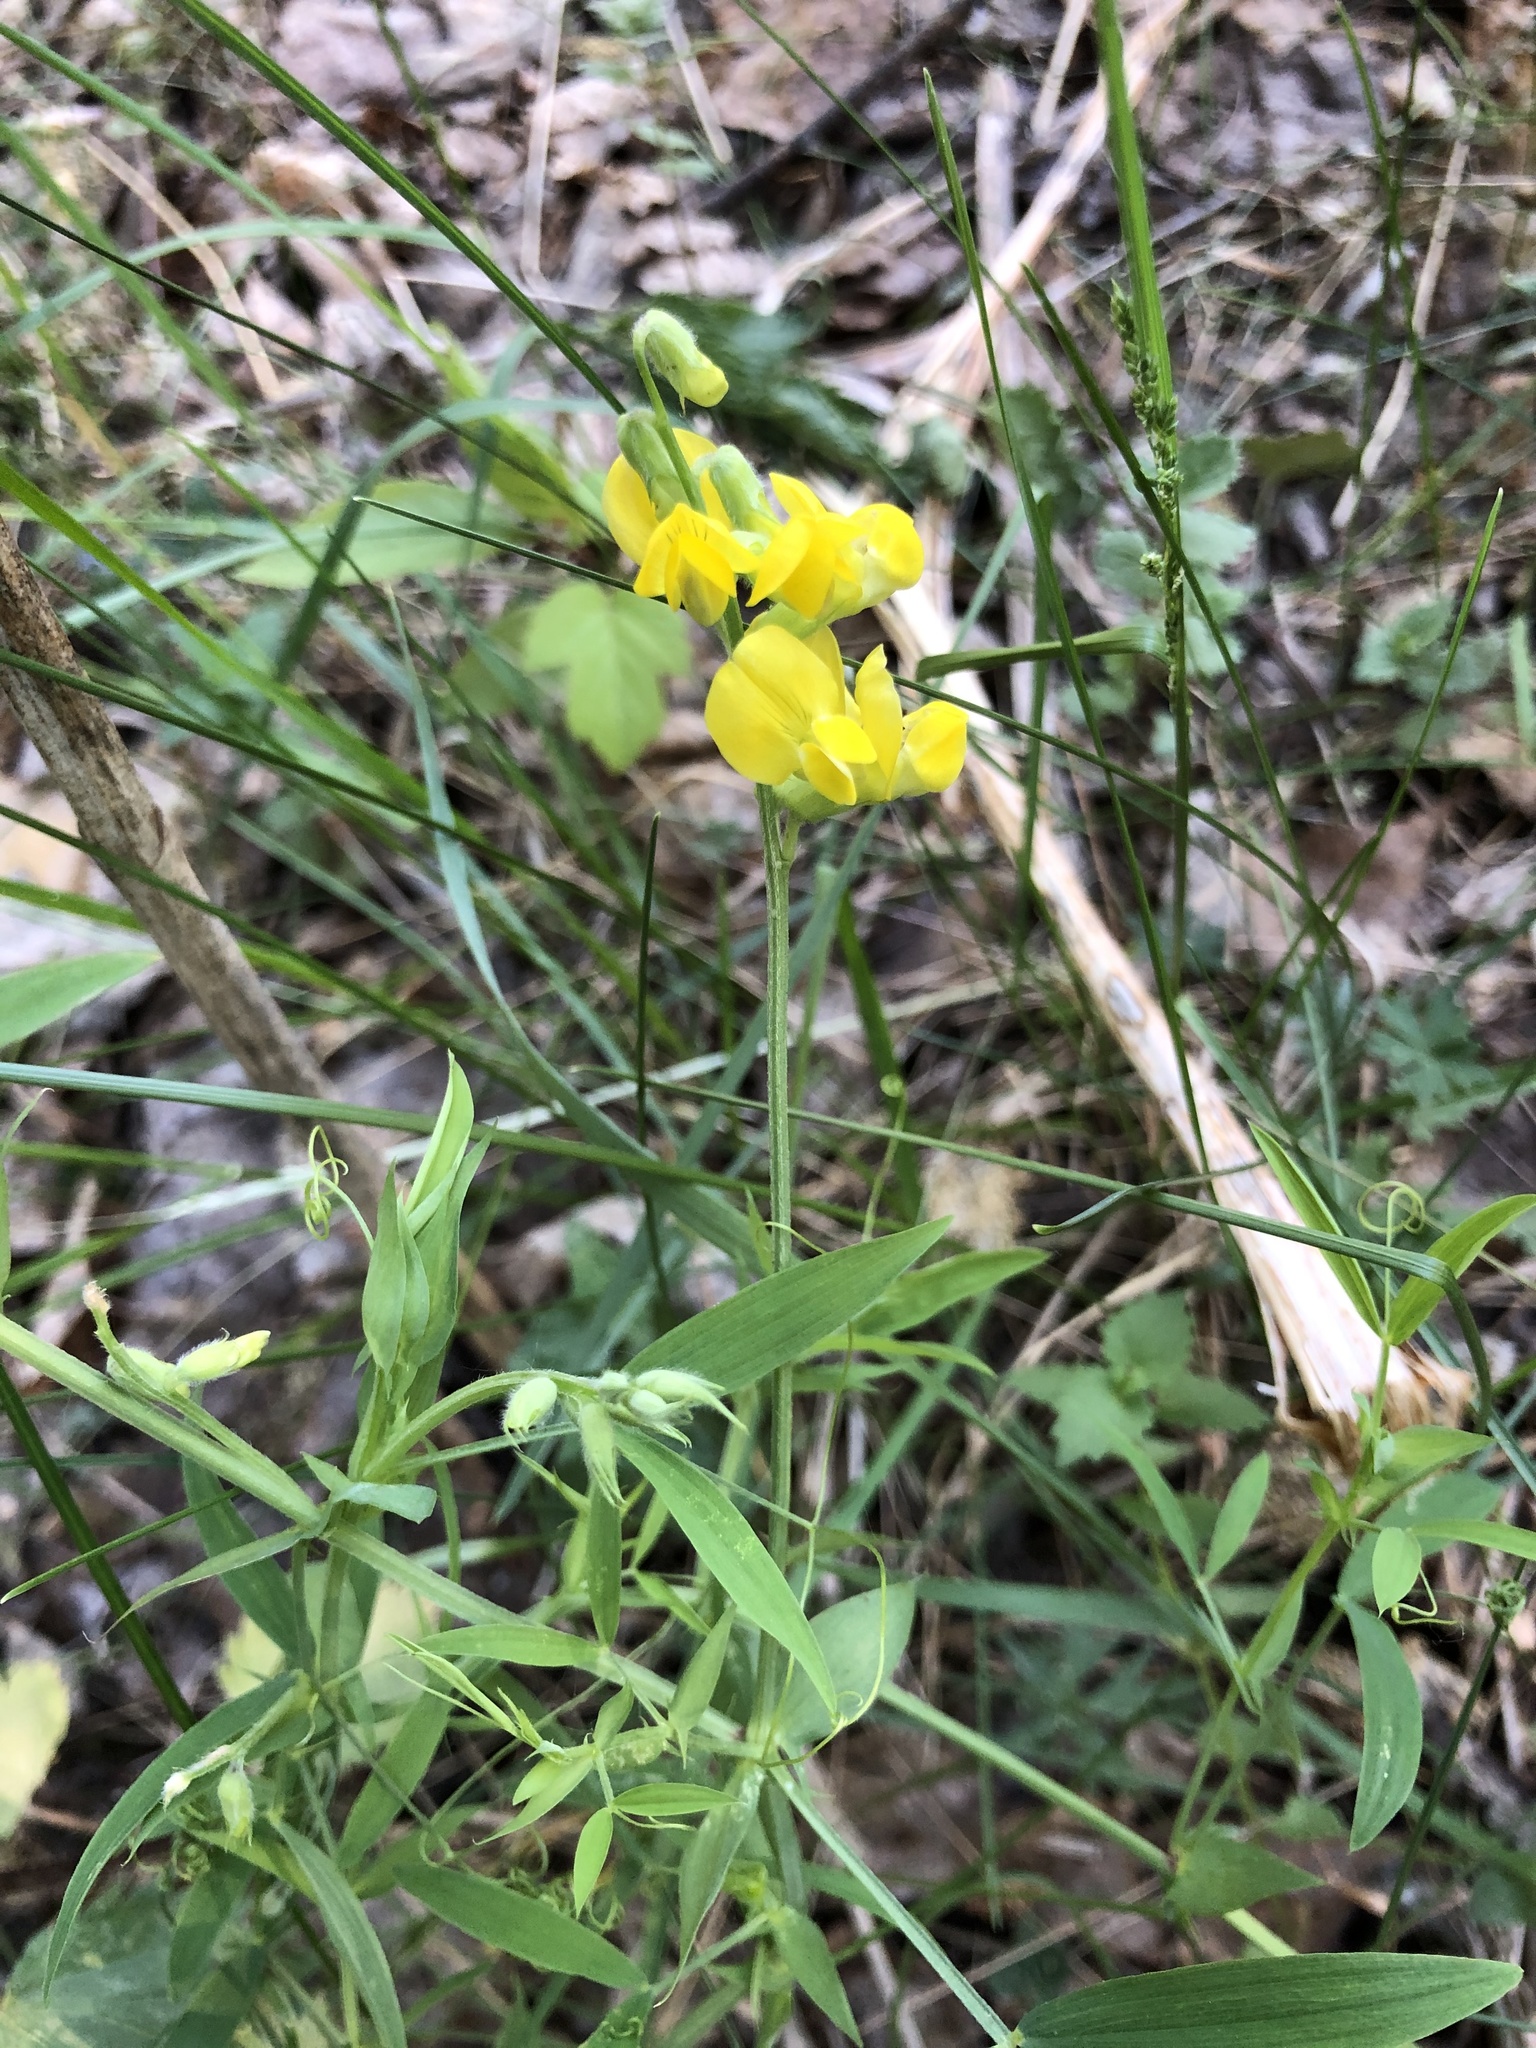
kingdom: Plantae
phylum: Tracheophyta
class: Magnoliopsida
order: Fabales
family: Fabaceae
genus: Lathyrus
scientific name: Lathyrus pratensis
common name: Meadow vetchling
